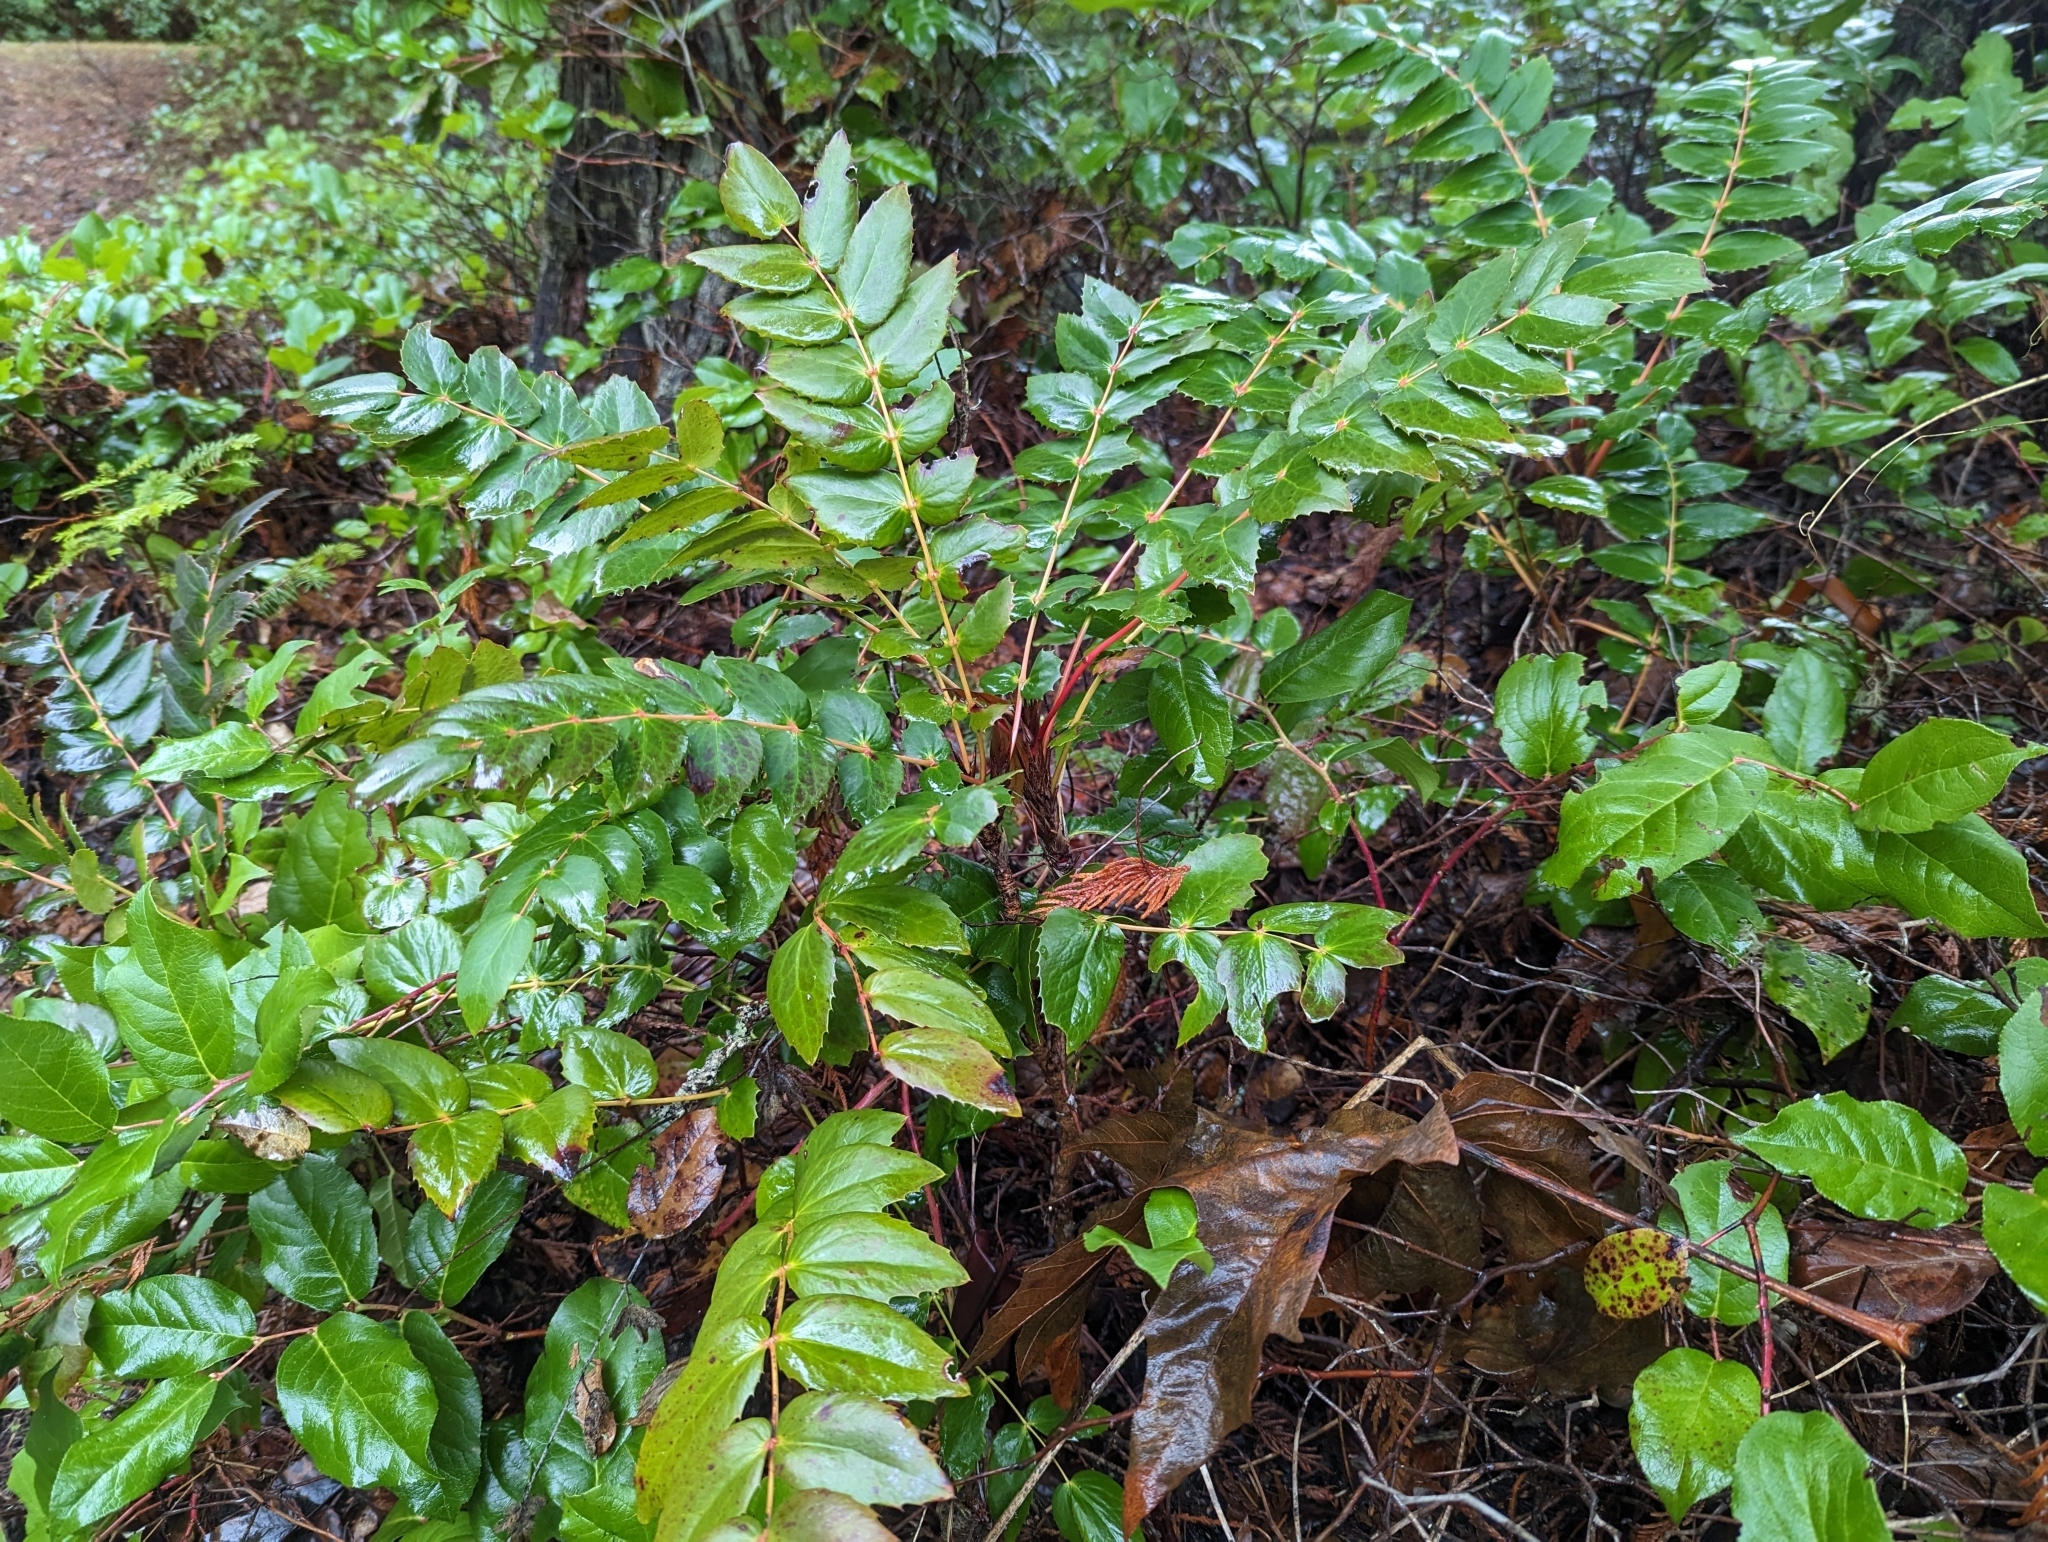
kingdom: Plantae
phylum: Tracheophyta
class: Magnoliopsida
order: Ranunculales
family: Berberidaceae
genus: Mahonia
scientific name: Mahonia nervosa
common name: Cascade oregon-grape
